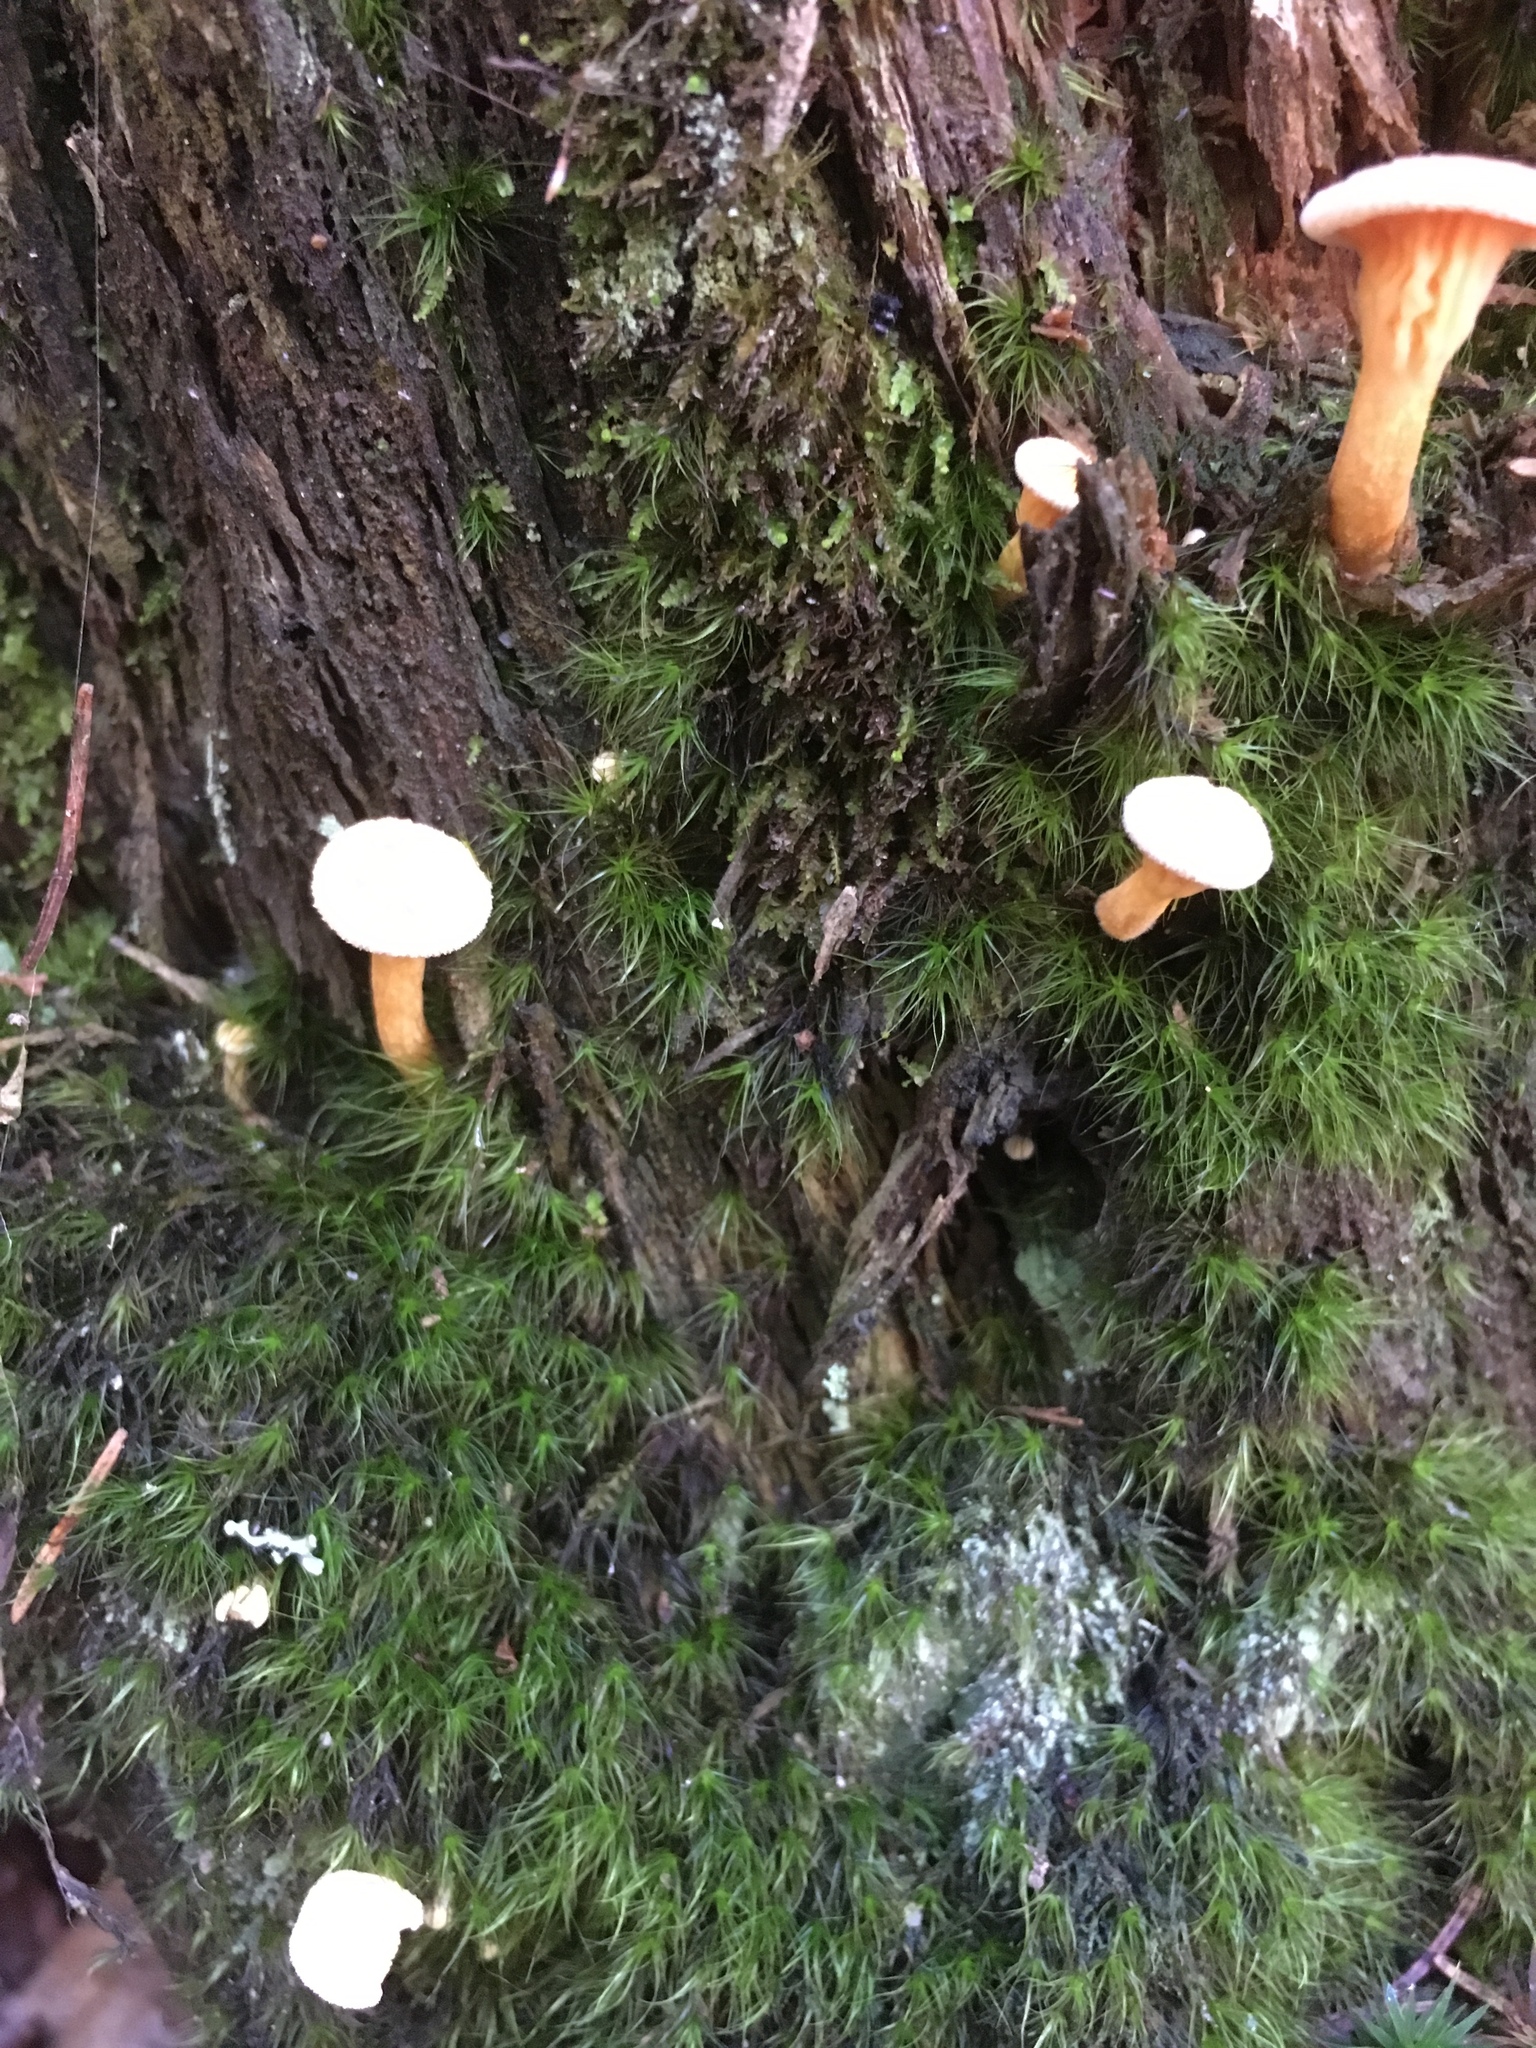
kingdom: Fungi
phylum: Basidiomycota
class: Agaricomycetes
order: Boletales
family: Hygrophoropsidaceae
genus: Hygrophoropsis
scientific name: Hygrophoropsis aurantiaca
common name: False chanterelle
